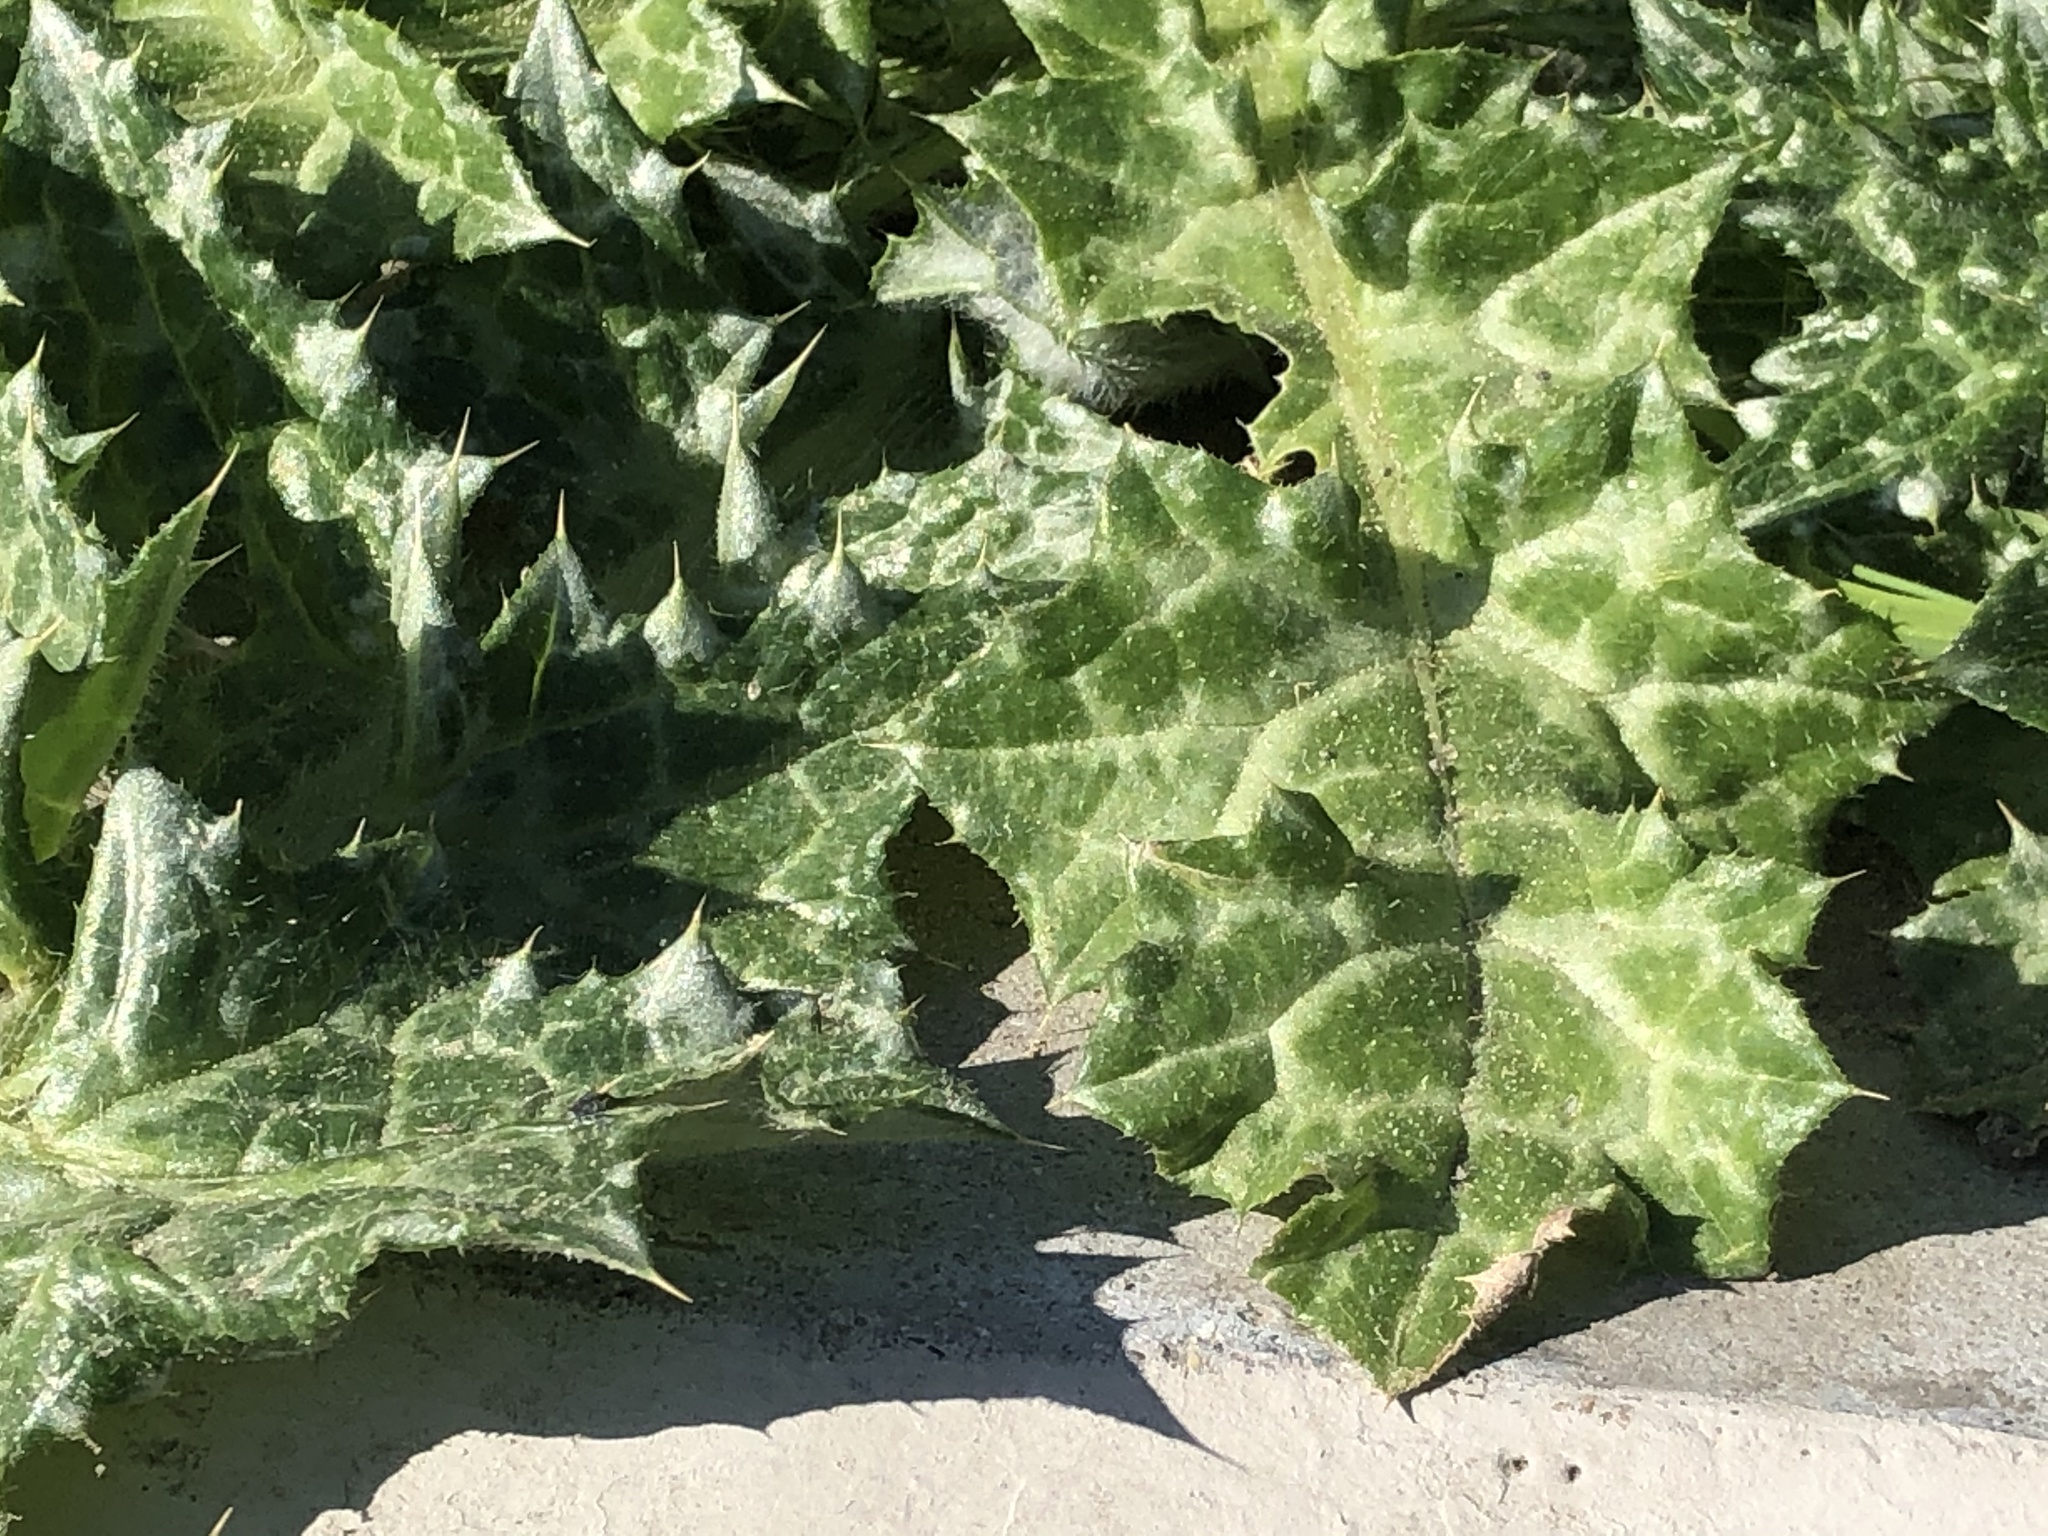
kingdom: Plantae
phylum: Tracheophyta
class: Magnoliopsida
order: Asterales
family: Asteraceae
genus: Carduus
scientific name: Carduus pycnocephalus
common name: Plymouth thistle
